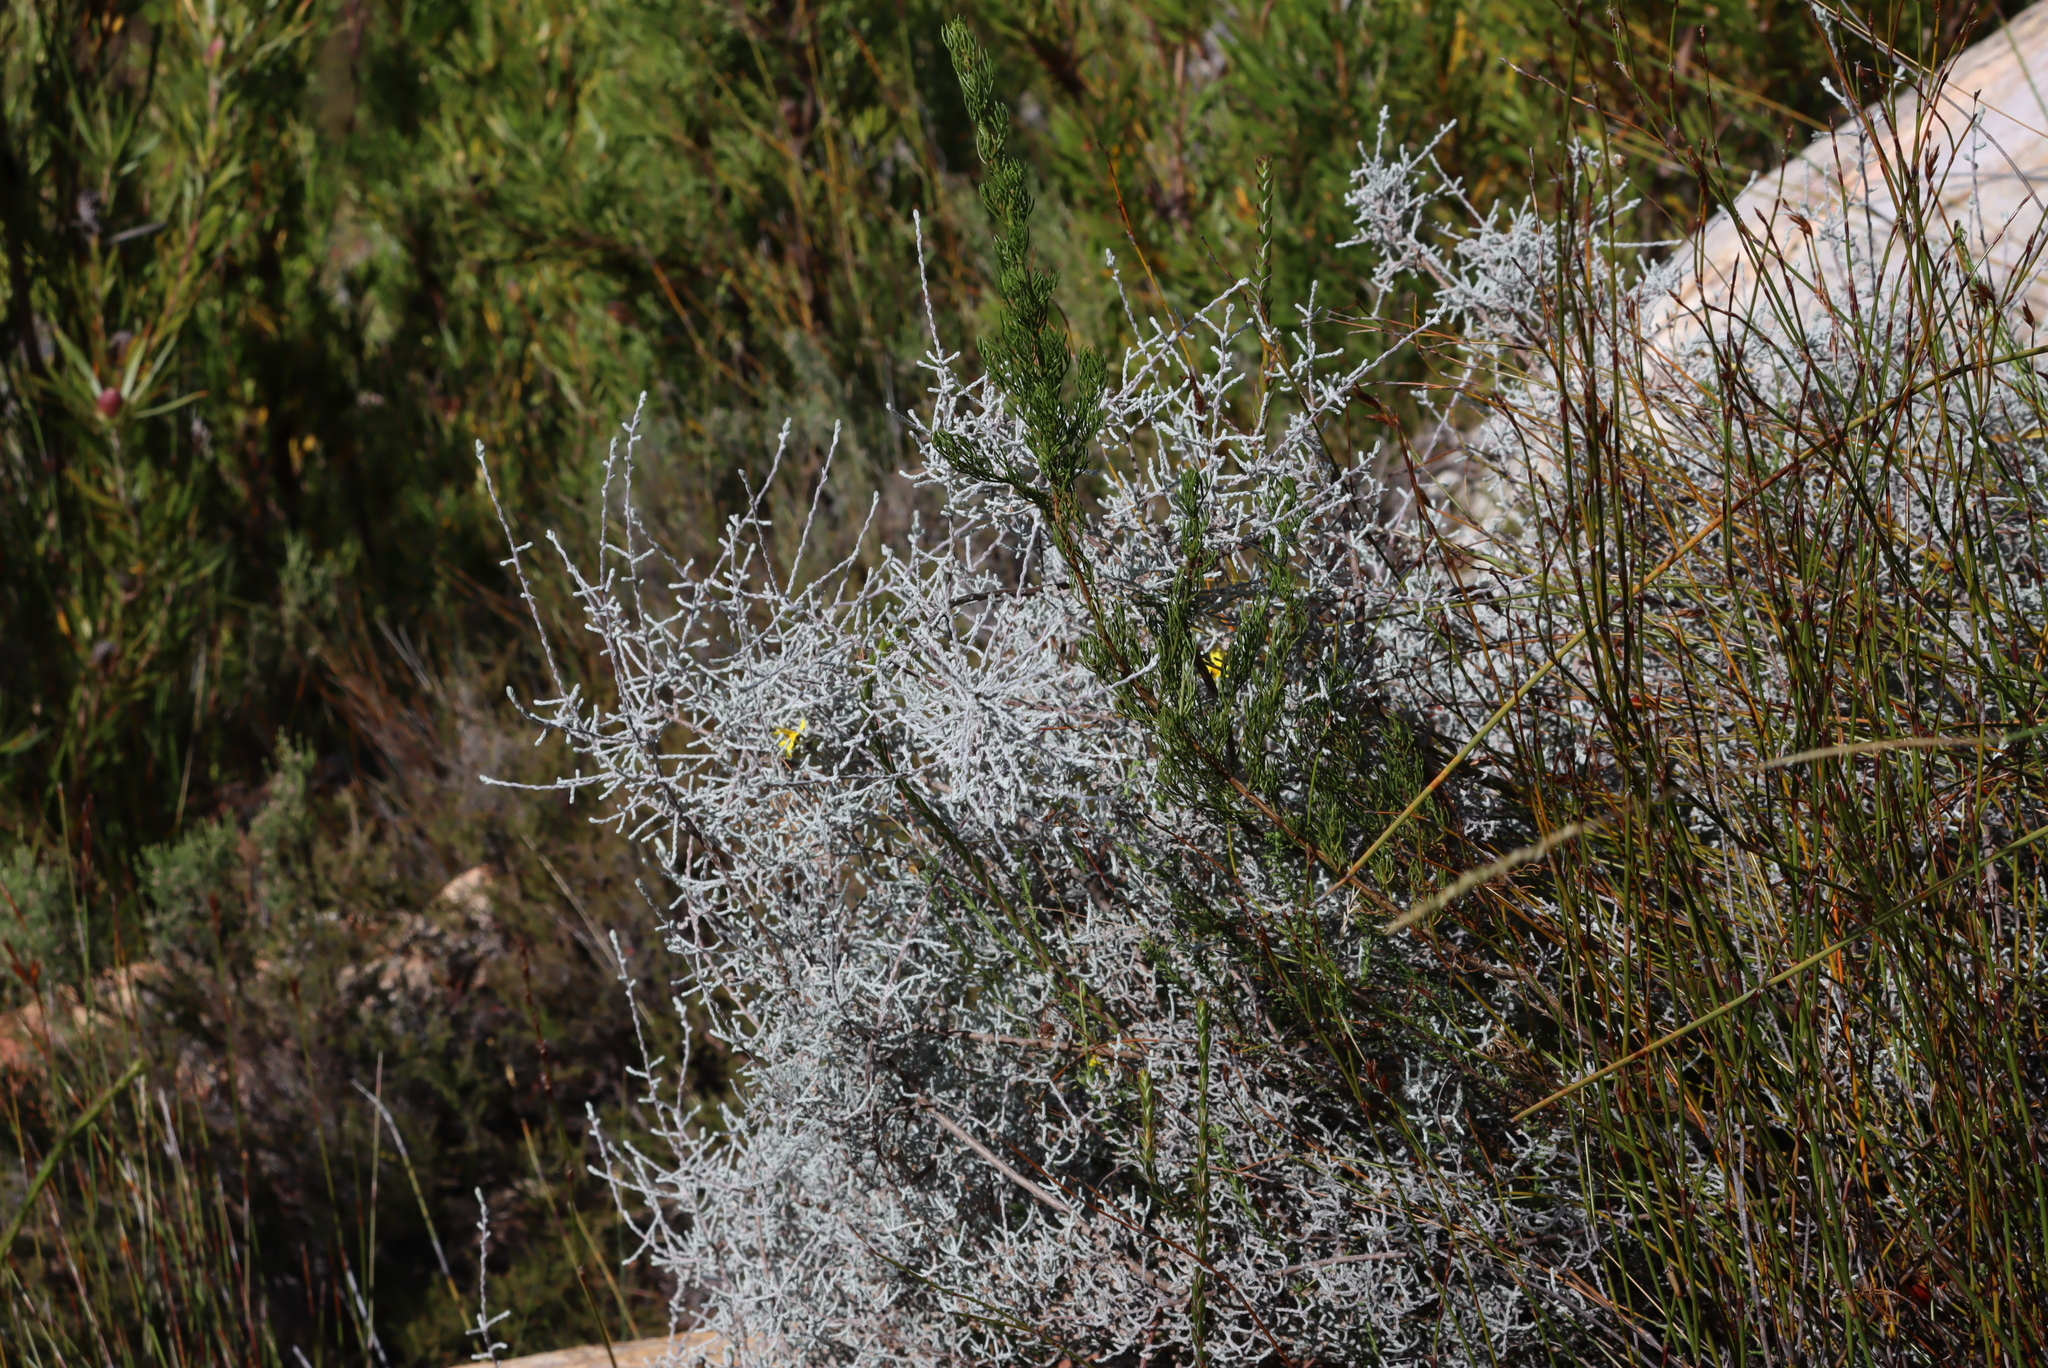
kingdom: Plantae
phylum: Tracheophyta
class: Magnoliopsida
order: Asterales
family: Asteraceae
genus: Seriphium
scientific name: Seriphium plumosum
